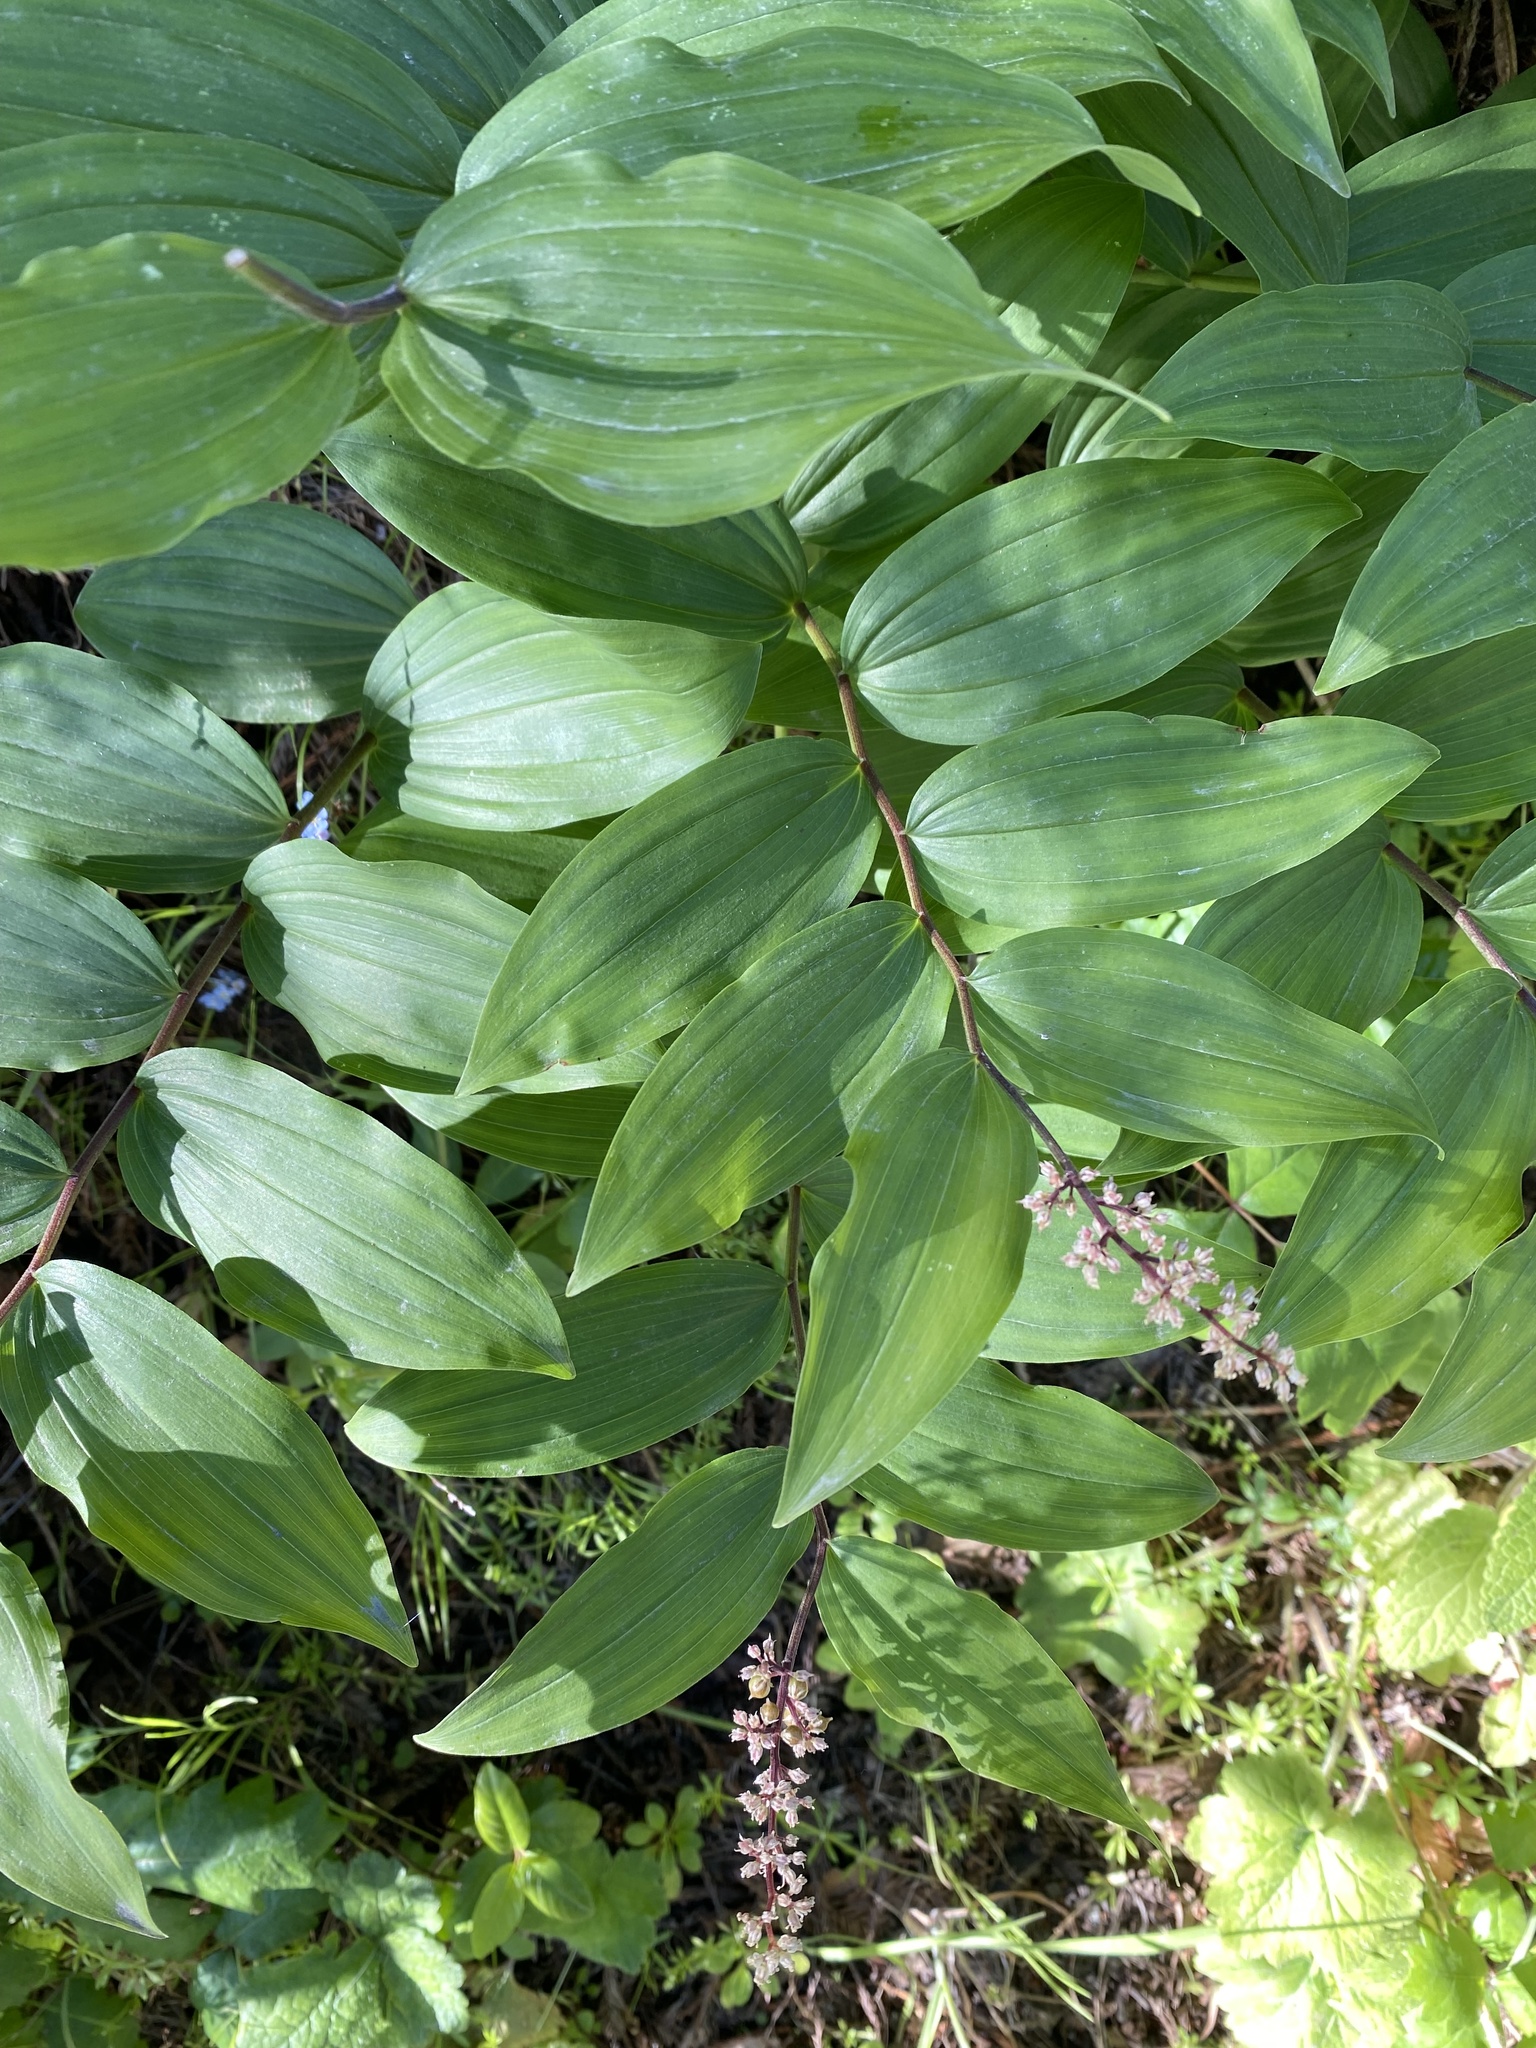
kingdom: Plantae
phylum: Tracheophyta
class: Liliopsida
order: Asparagales
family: Asparagaceae
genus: Maianthemum
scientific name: Maianthemum racemosum
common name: False spikenard
